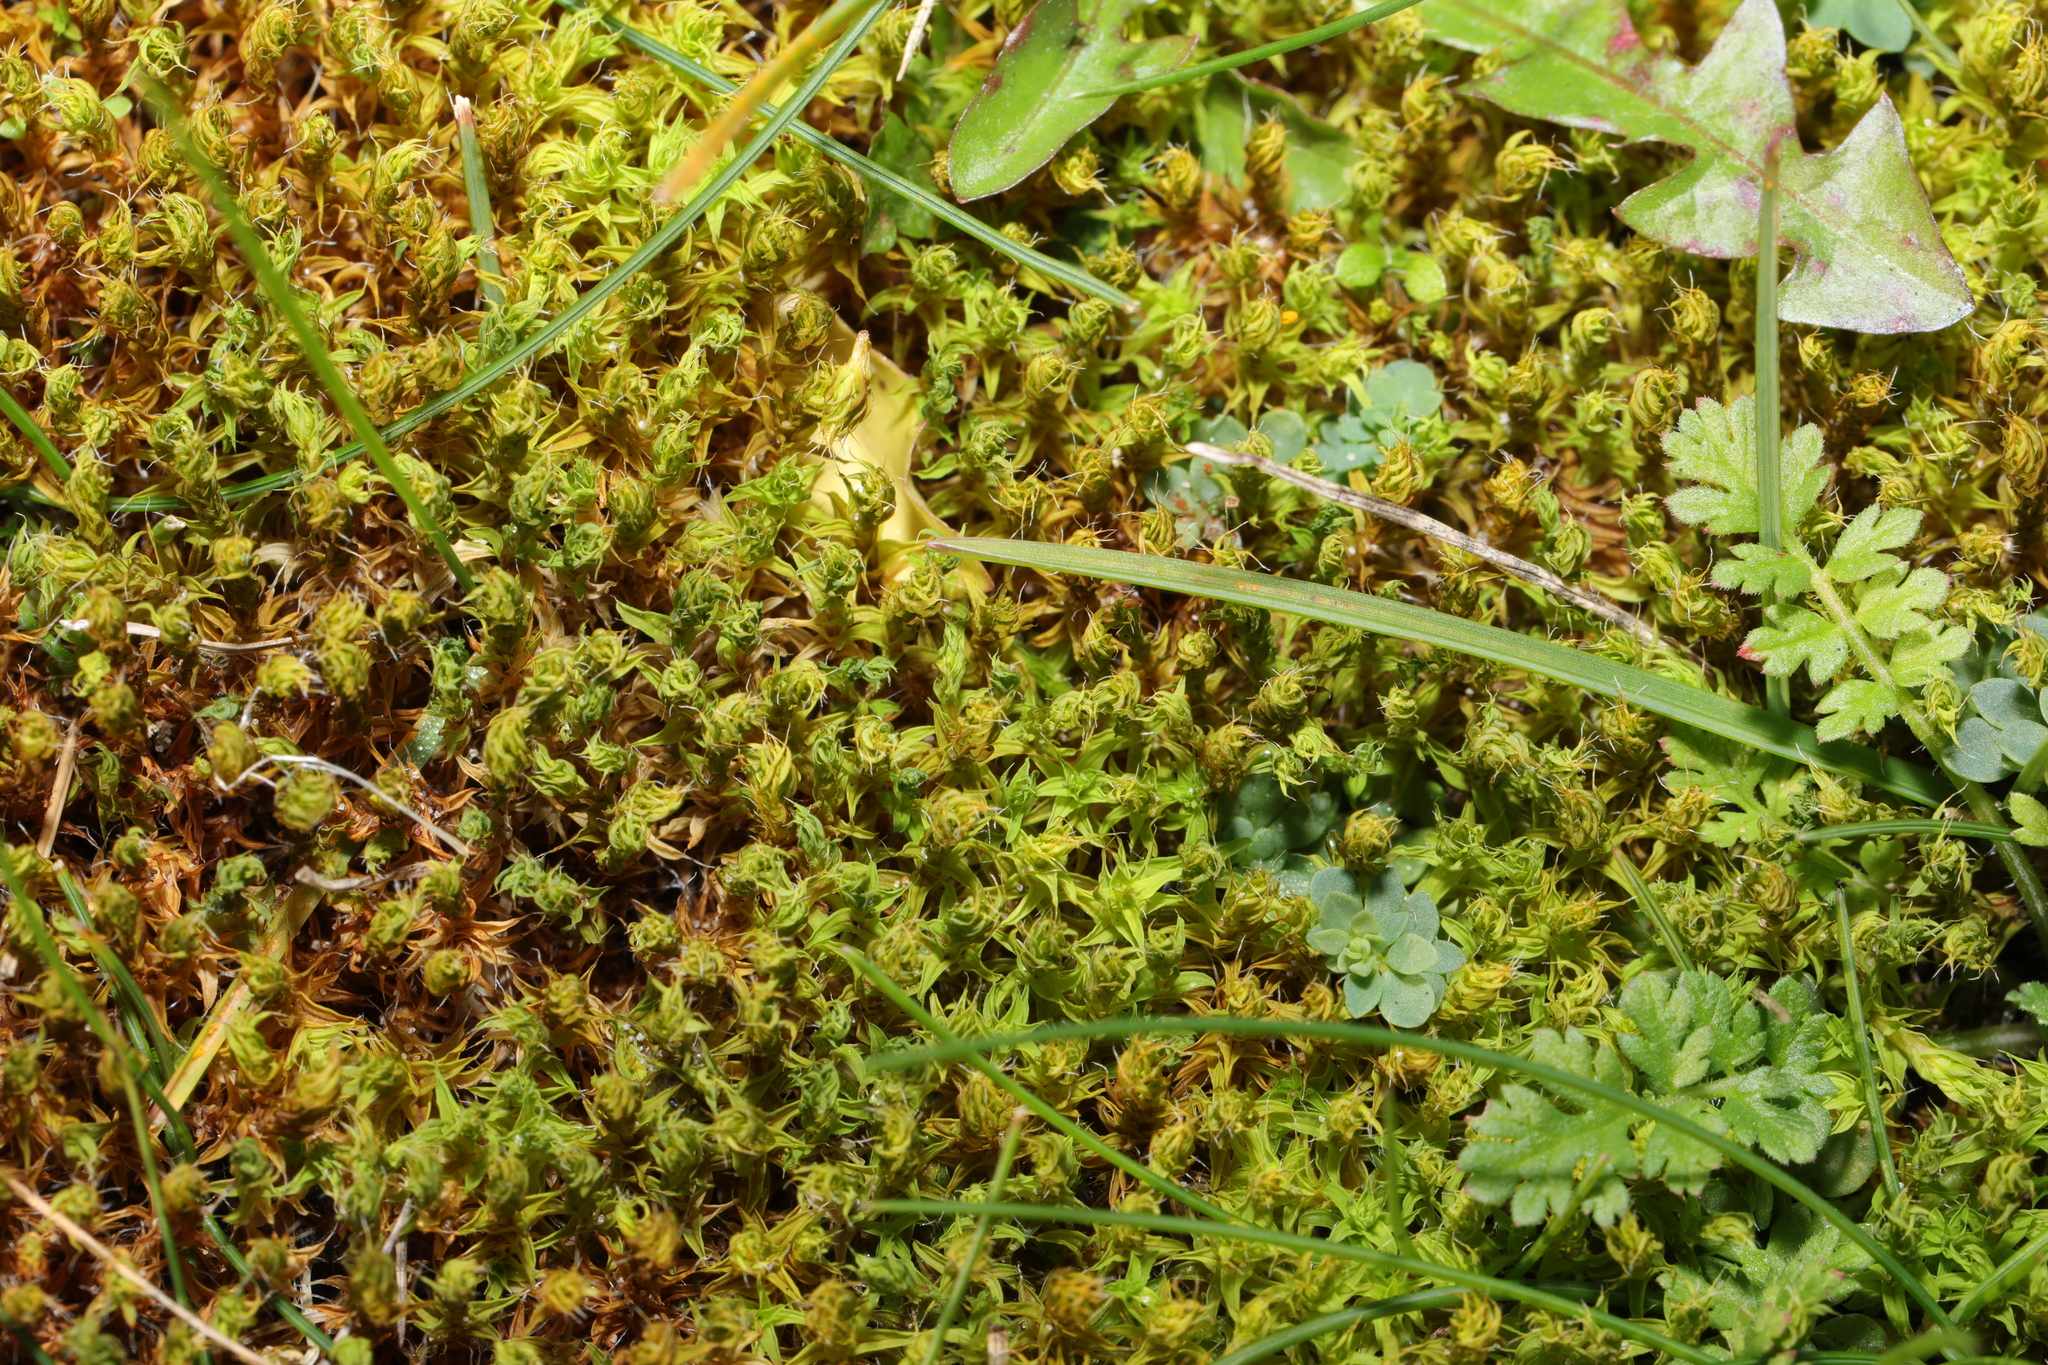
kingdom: Plantae
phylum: Bryophyta
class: Bryopsida
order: Pottiales
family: Pottiaceae
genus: Syntrichia
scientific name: Syntrichia ruralis
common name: Sidewalk screw moss
